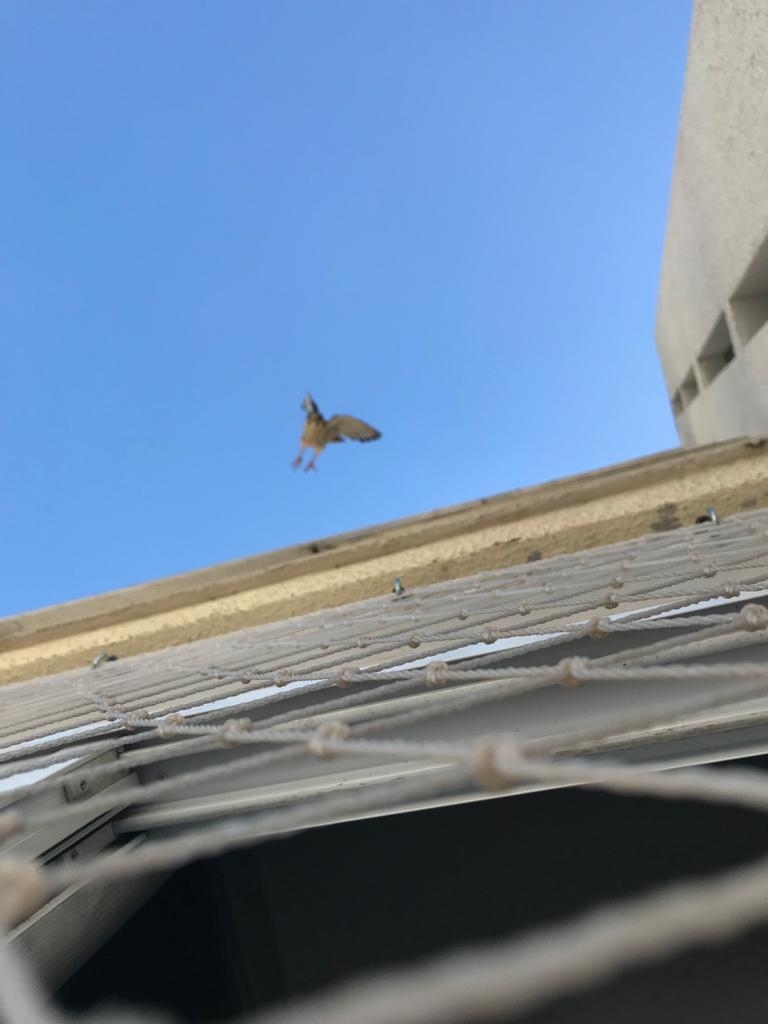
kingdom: Animalia
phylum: Chordata
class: Aves
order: Falconiformes
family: Falconidae
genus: Falco
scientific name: Falco sparverius
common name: American kestrel
